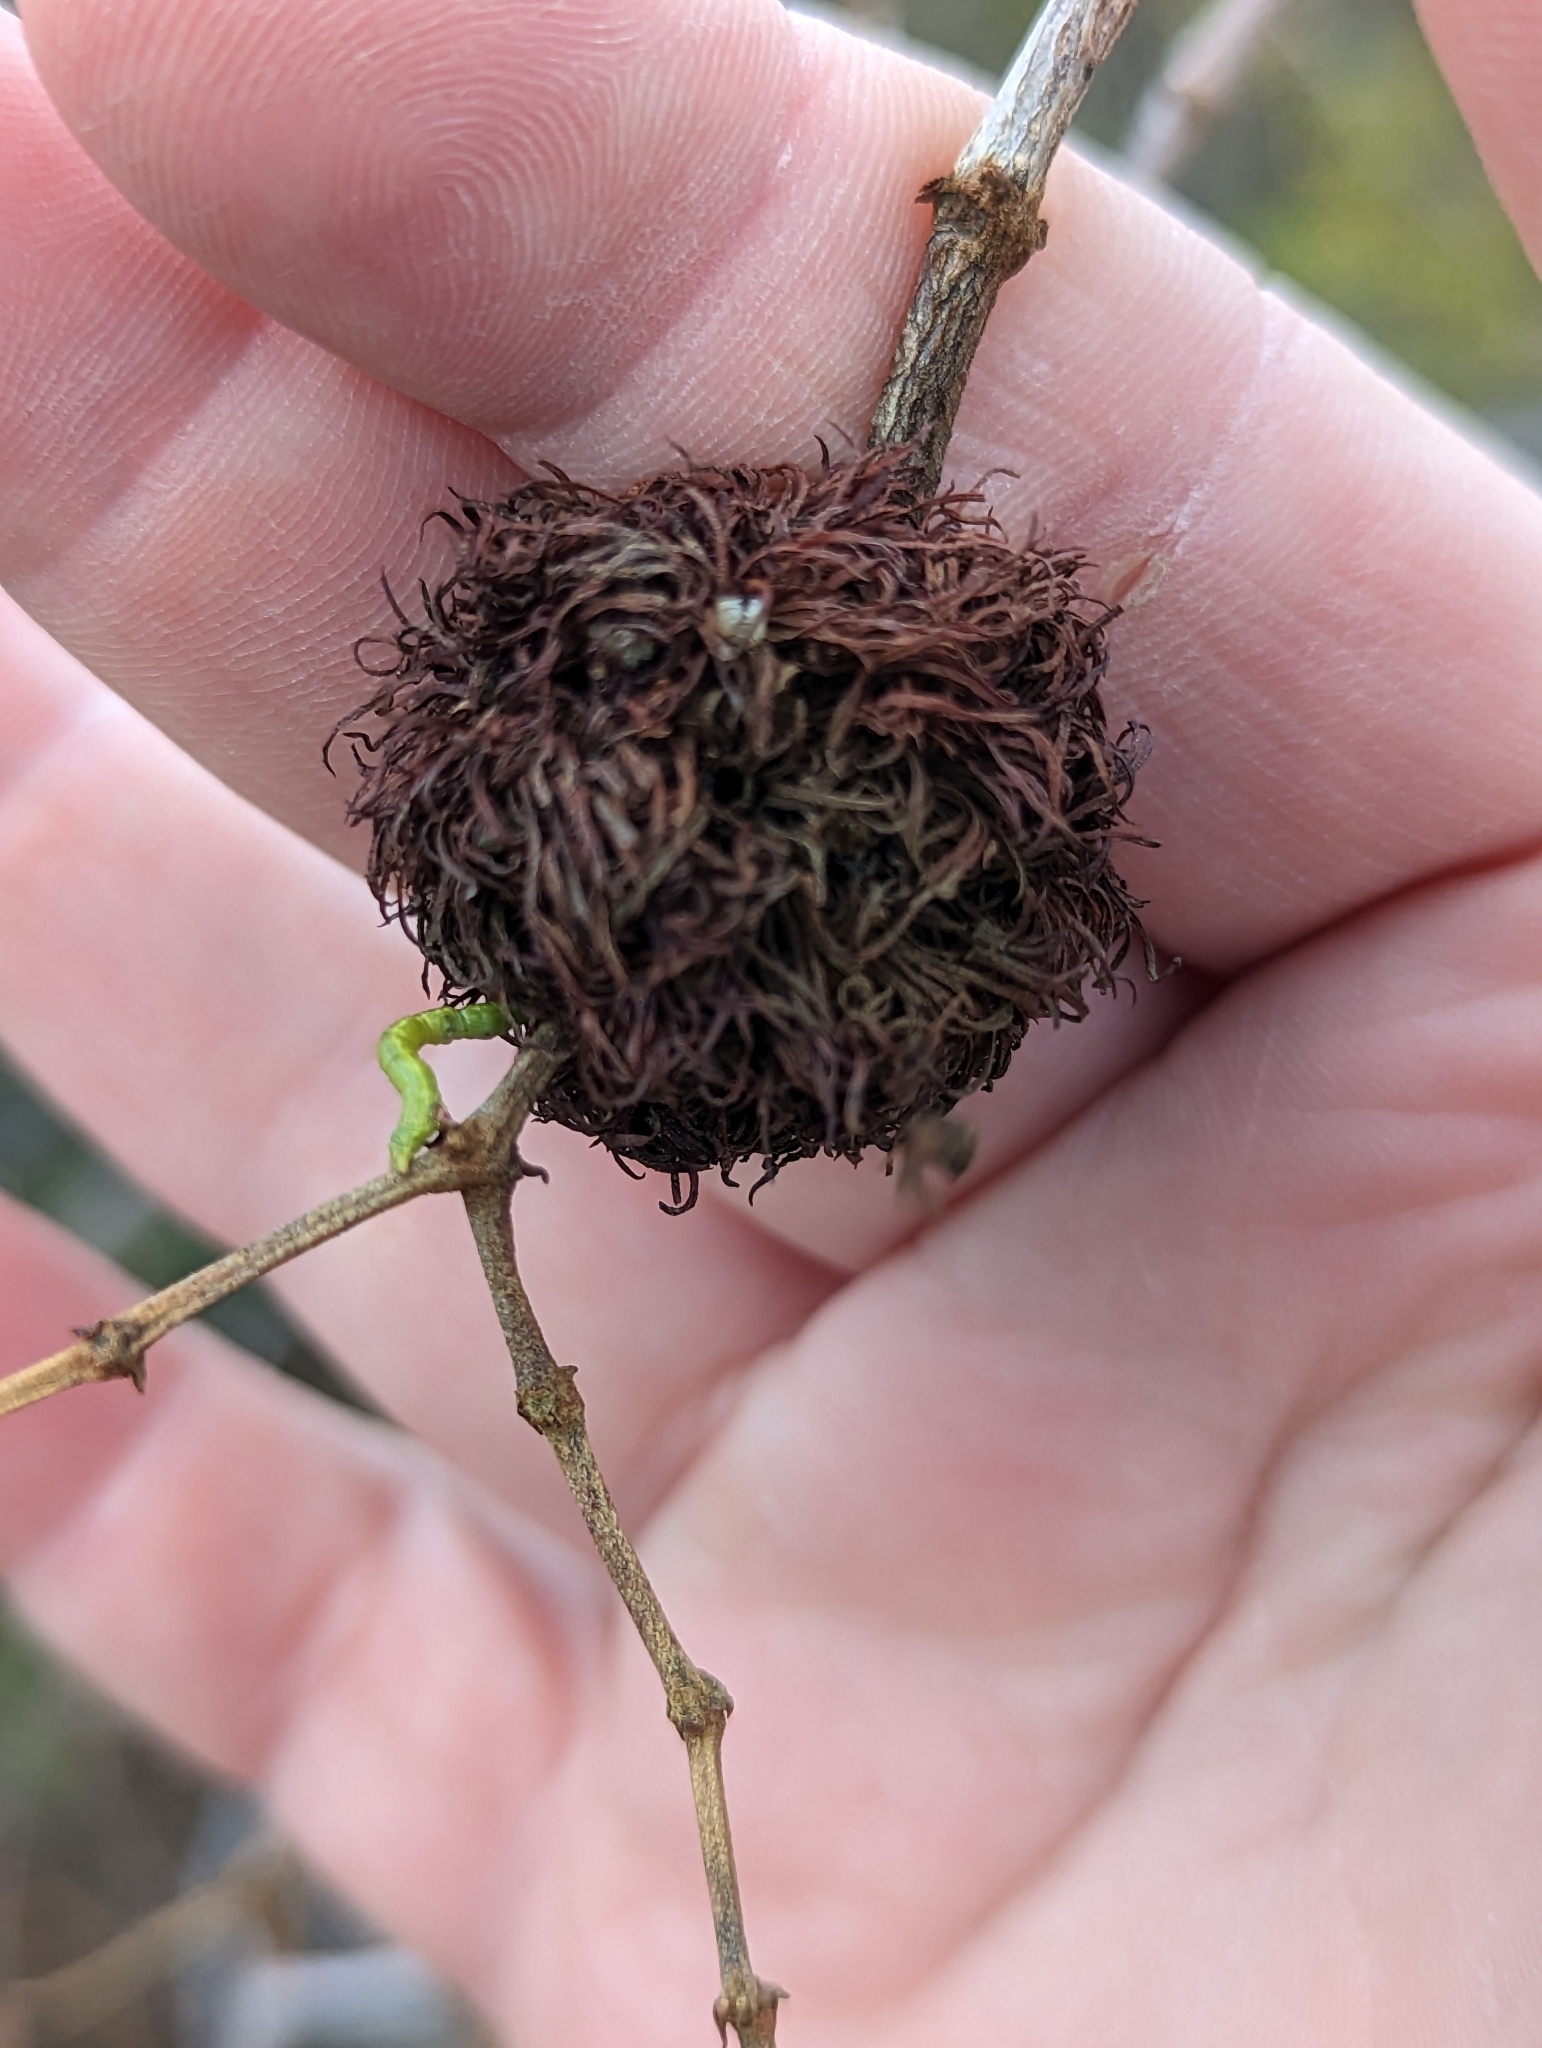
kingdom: Animalia
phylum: Arthropoda
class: Insecta
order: Diptera
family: Cecidomyiidae
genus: Asphondylia
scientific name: Asphondylia auripila
